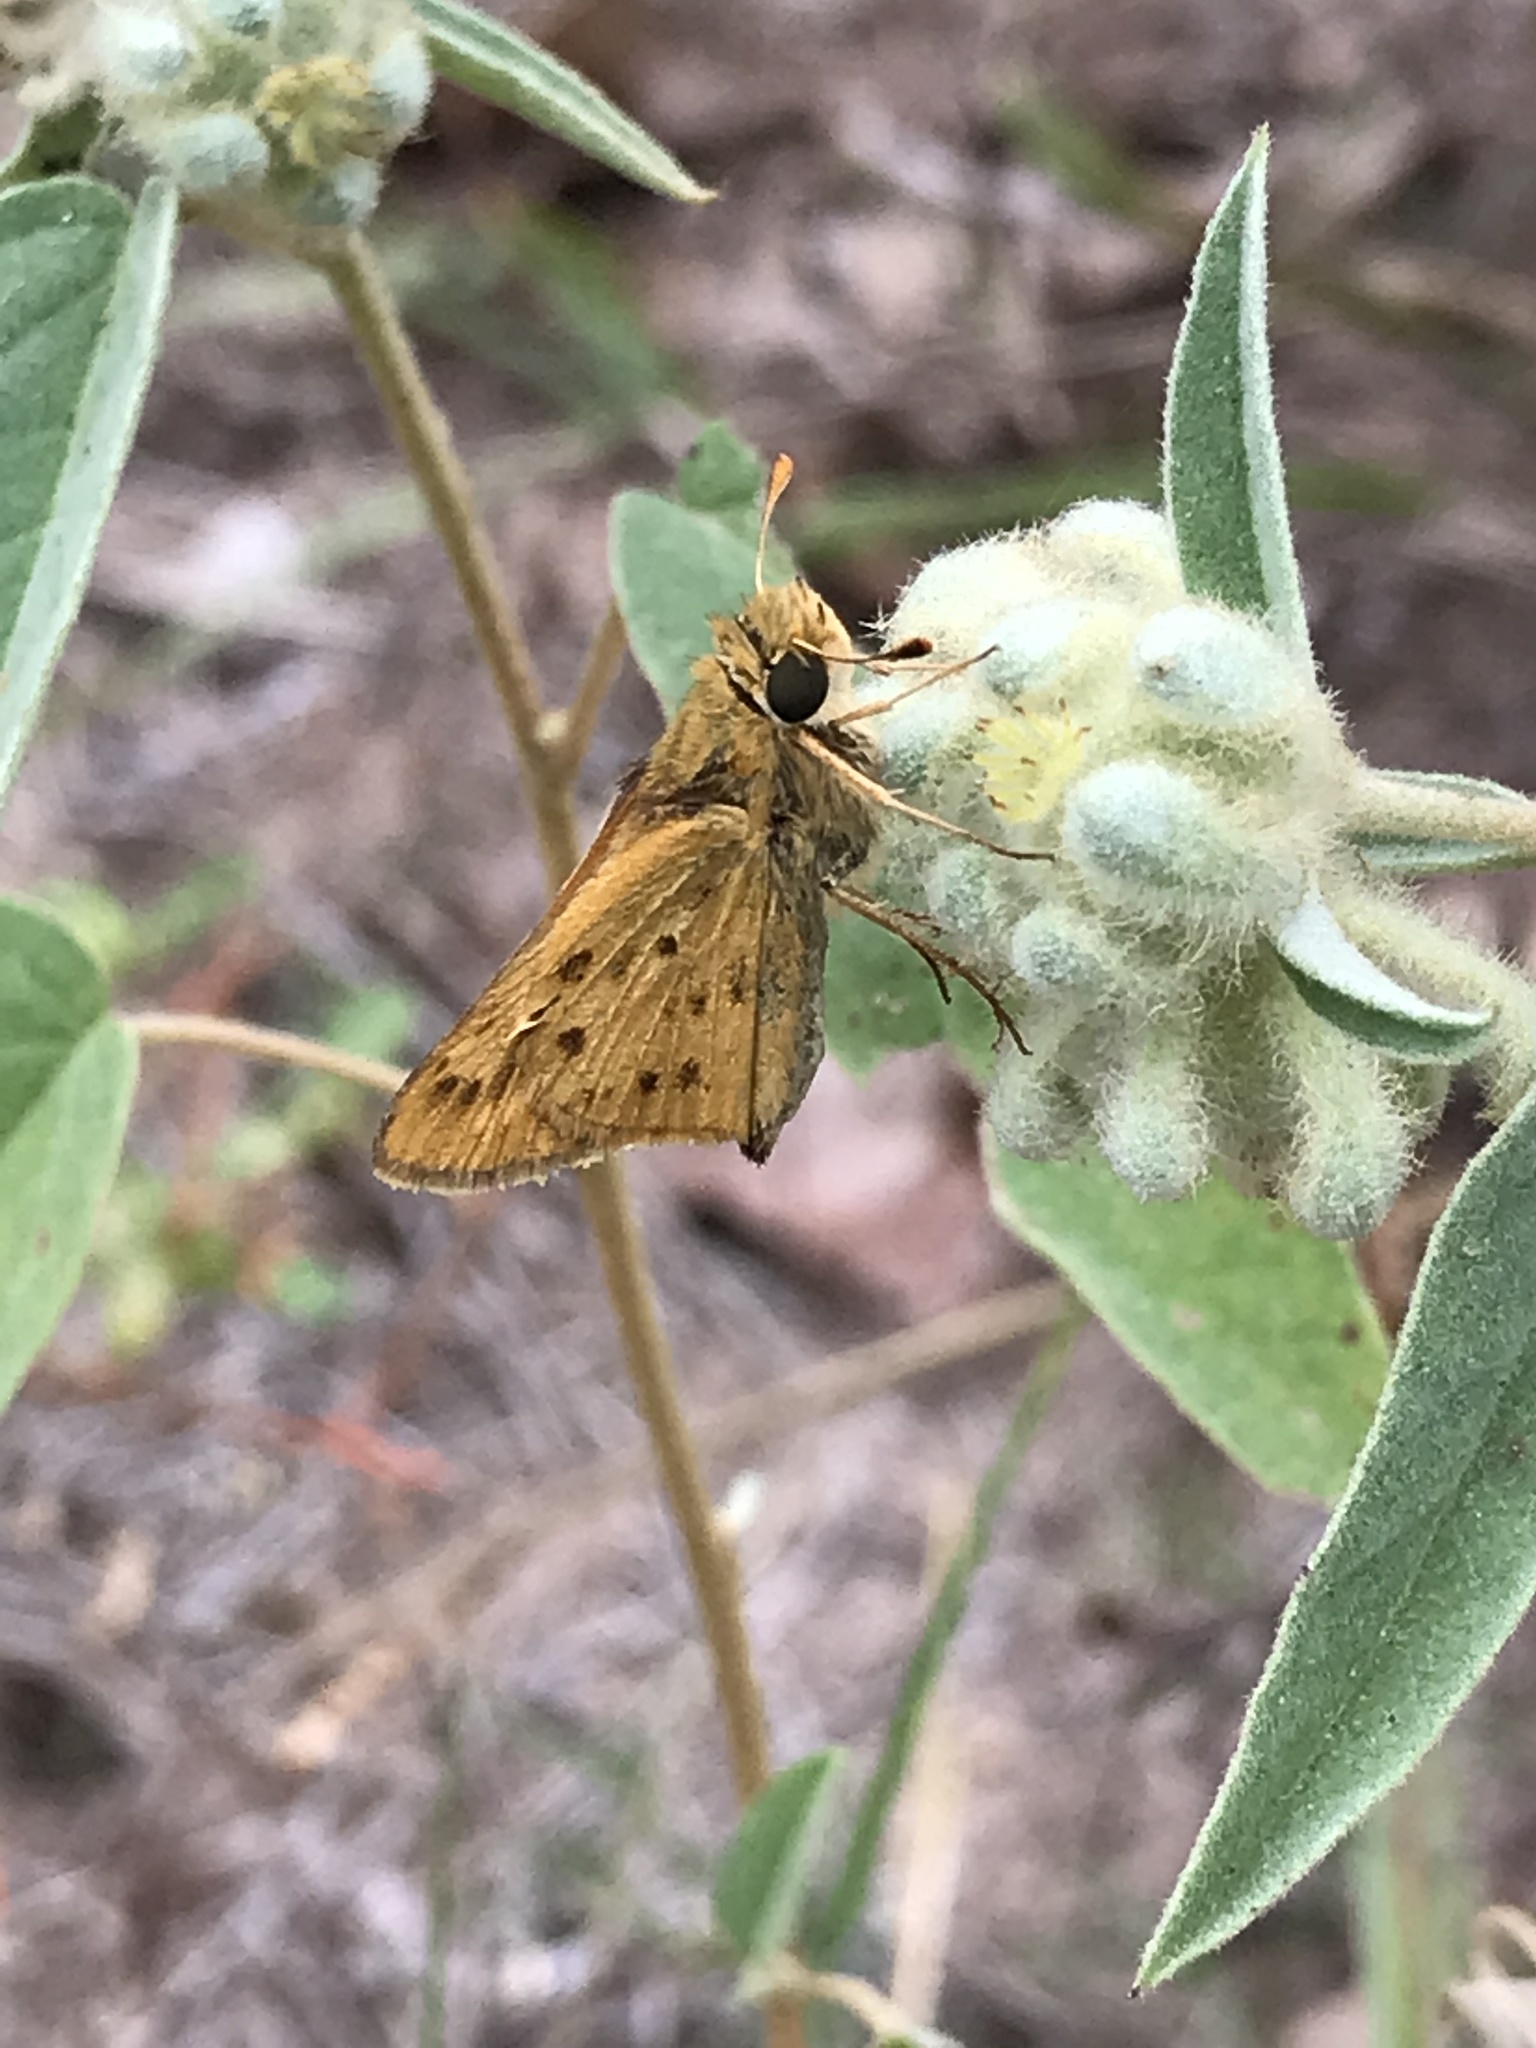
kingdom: Animalia
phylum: Arthropoda
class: Insecta
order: Lepidoptera
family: Hesperiidae
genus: Hylephila
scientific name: Hylephila phyleus
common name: Fiery skipper
